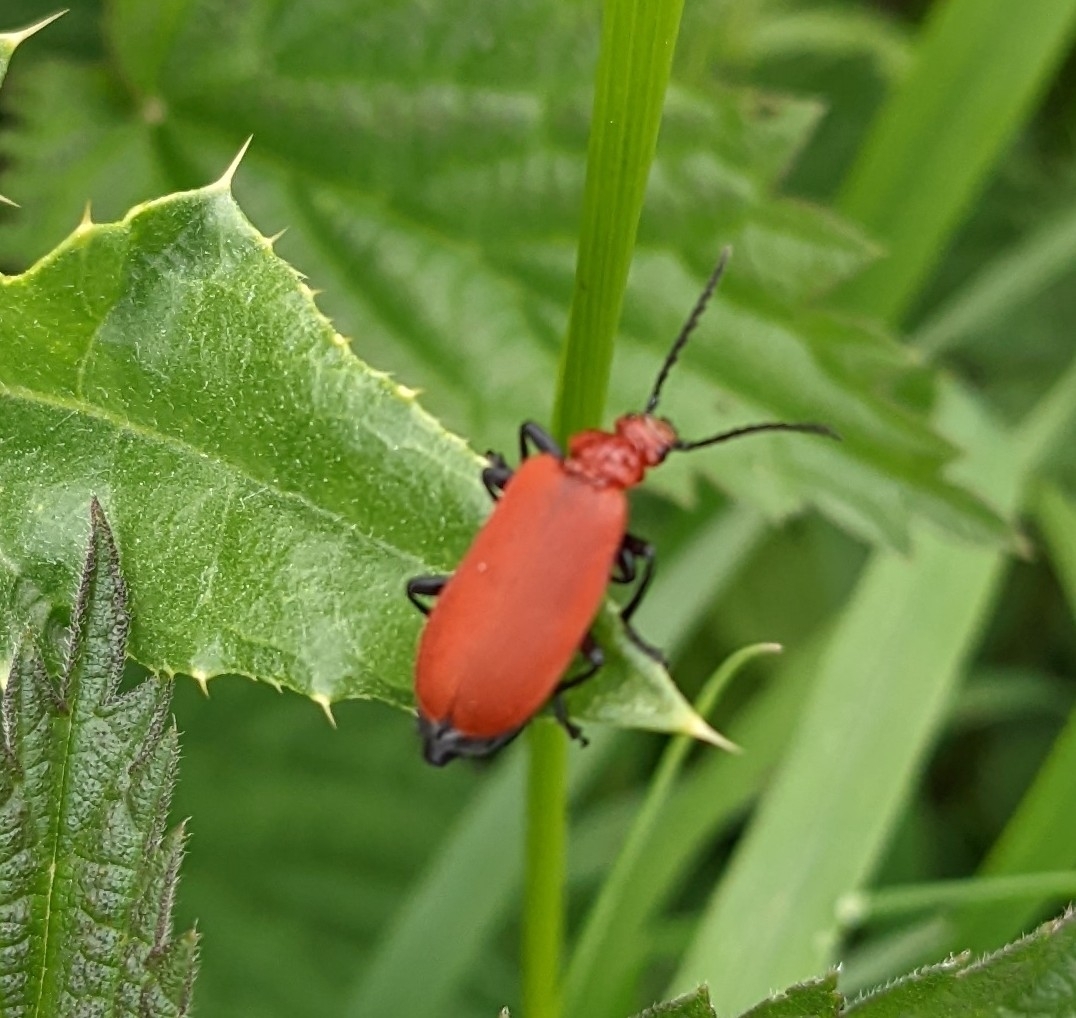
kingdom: Animalia
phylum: Arthropoda
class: Insecta
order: Coleoptera
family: Pyrochroidae
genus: Pyrochroa
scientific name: Pyrochroa serraticornis
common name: Red-headed cardinal beetle
